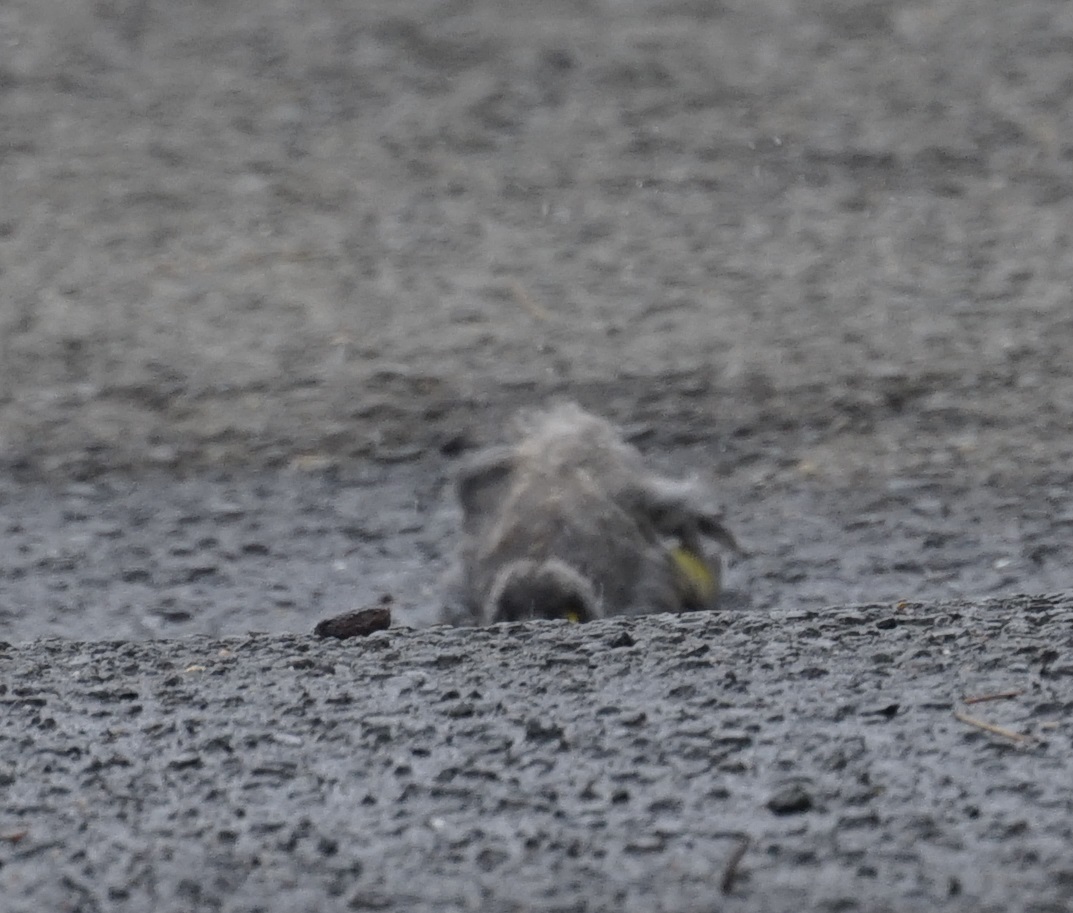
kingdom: Animalia
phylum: Chordata
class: Aves
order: Passeriformes
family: Meliphagidae
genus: Manorina
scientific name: Manorina melanocephala
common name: Noisy miner
